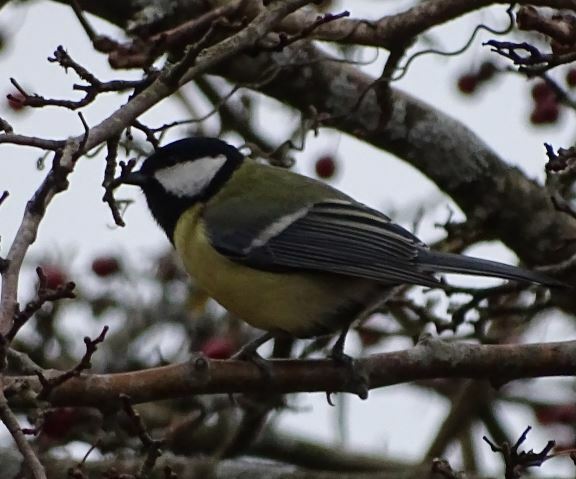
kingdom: Animalia
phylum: Chordata
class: Aves
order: Passeriformes
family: Paridae
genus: Parus
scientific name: Parus major
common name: Great tit
